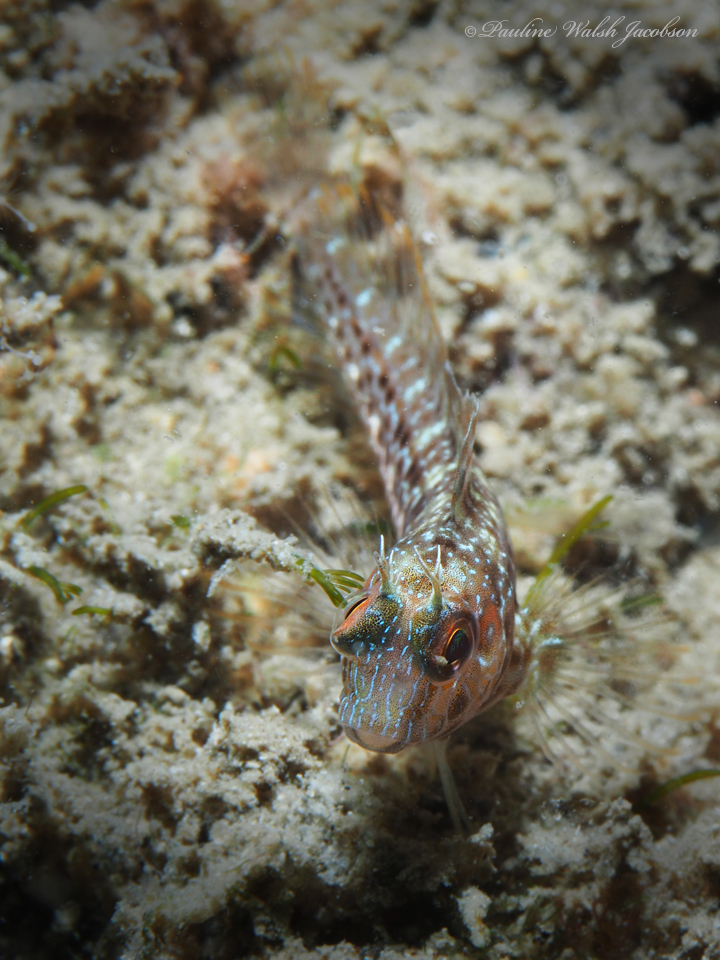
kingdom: Animalia
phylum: Chordata
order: Perciformes
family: Blenniidae
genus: Parablennius
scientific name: Parablennius marmoreus
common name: Seaweed blenny
